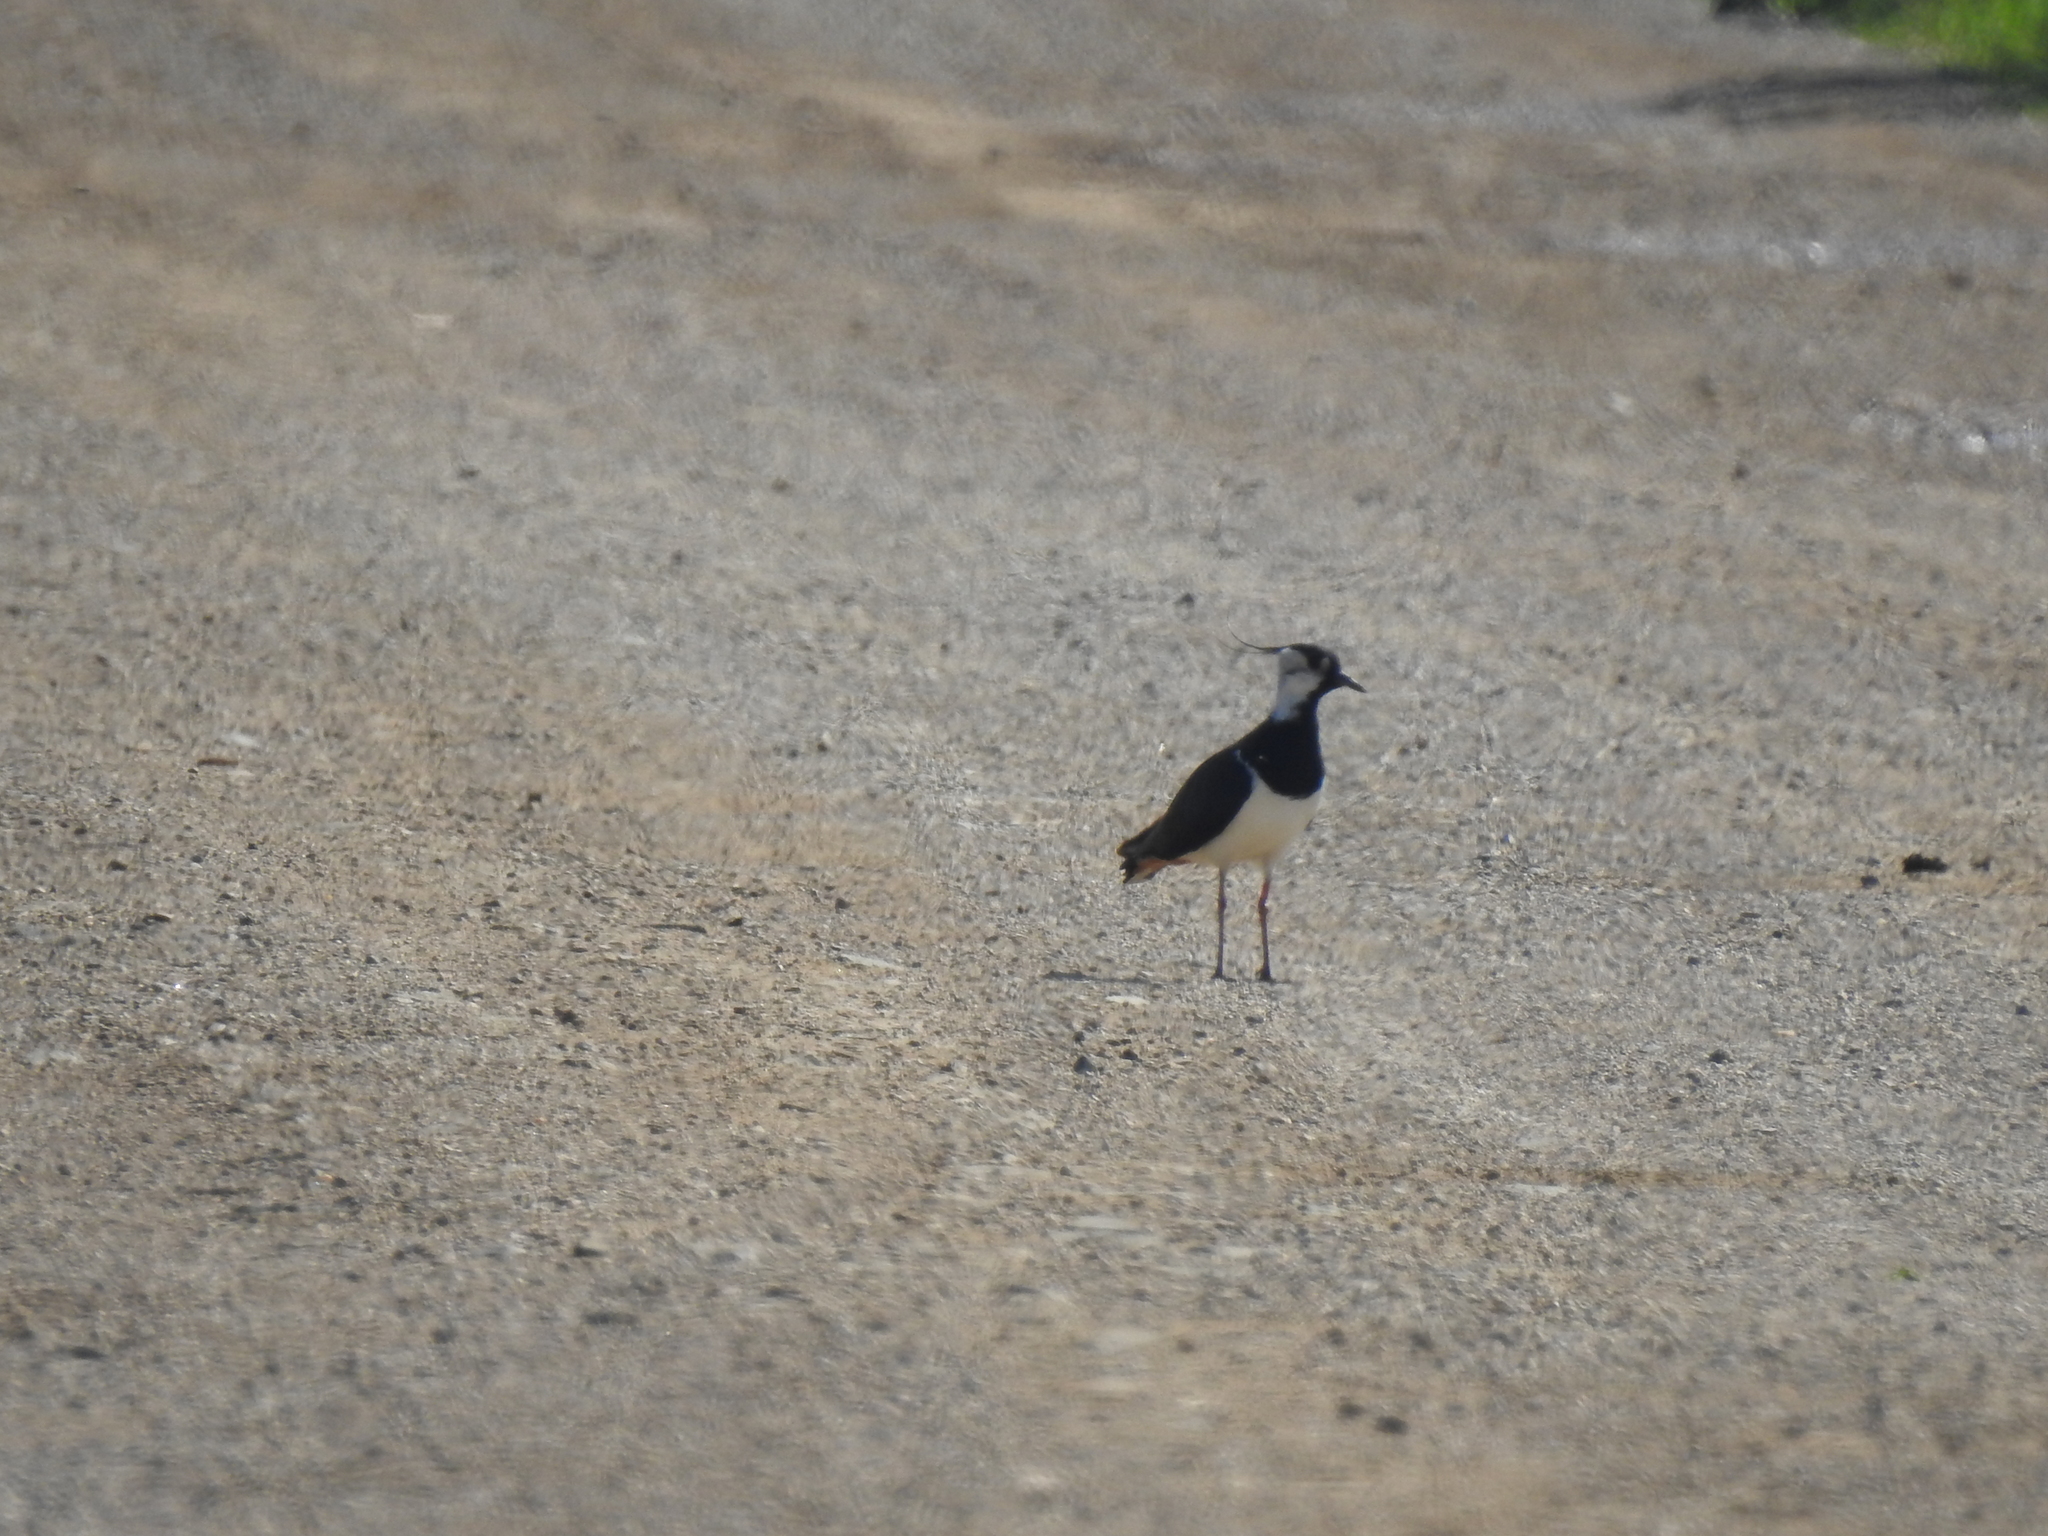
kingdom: Animalia
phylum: Chordata
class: Aves
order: Charadriiformes
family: Charadriidae
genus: Vanellus
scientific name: Vanellus vanellus
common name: Northern lapwing
